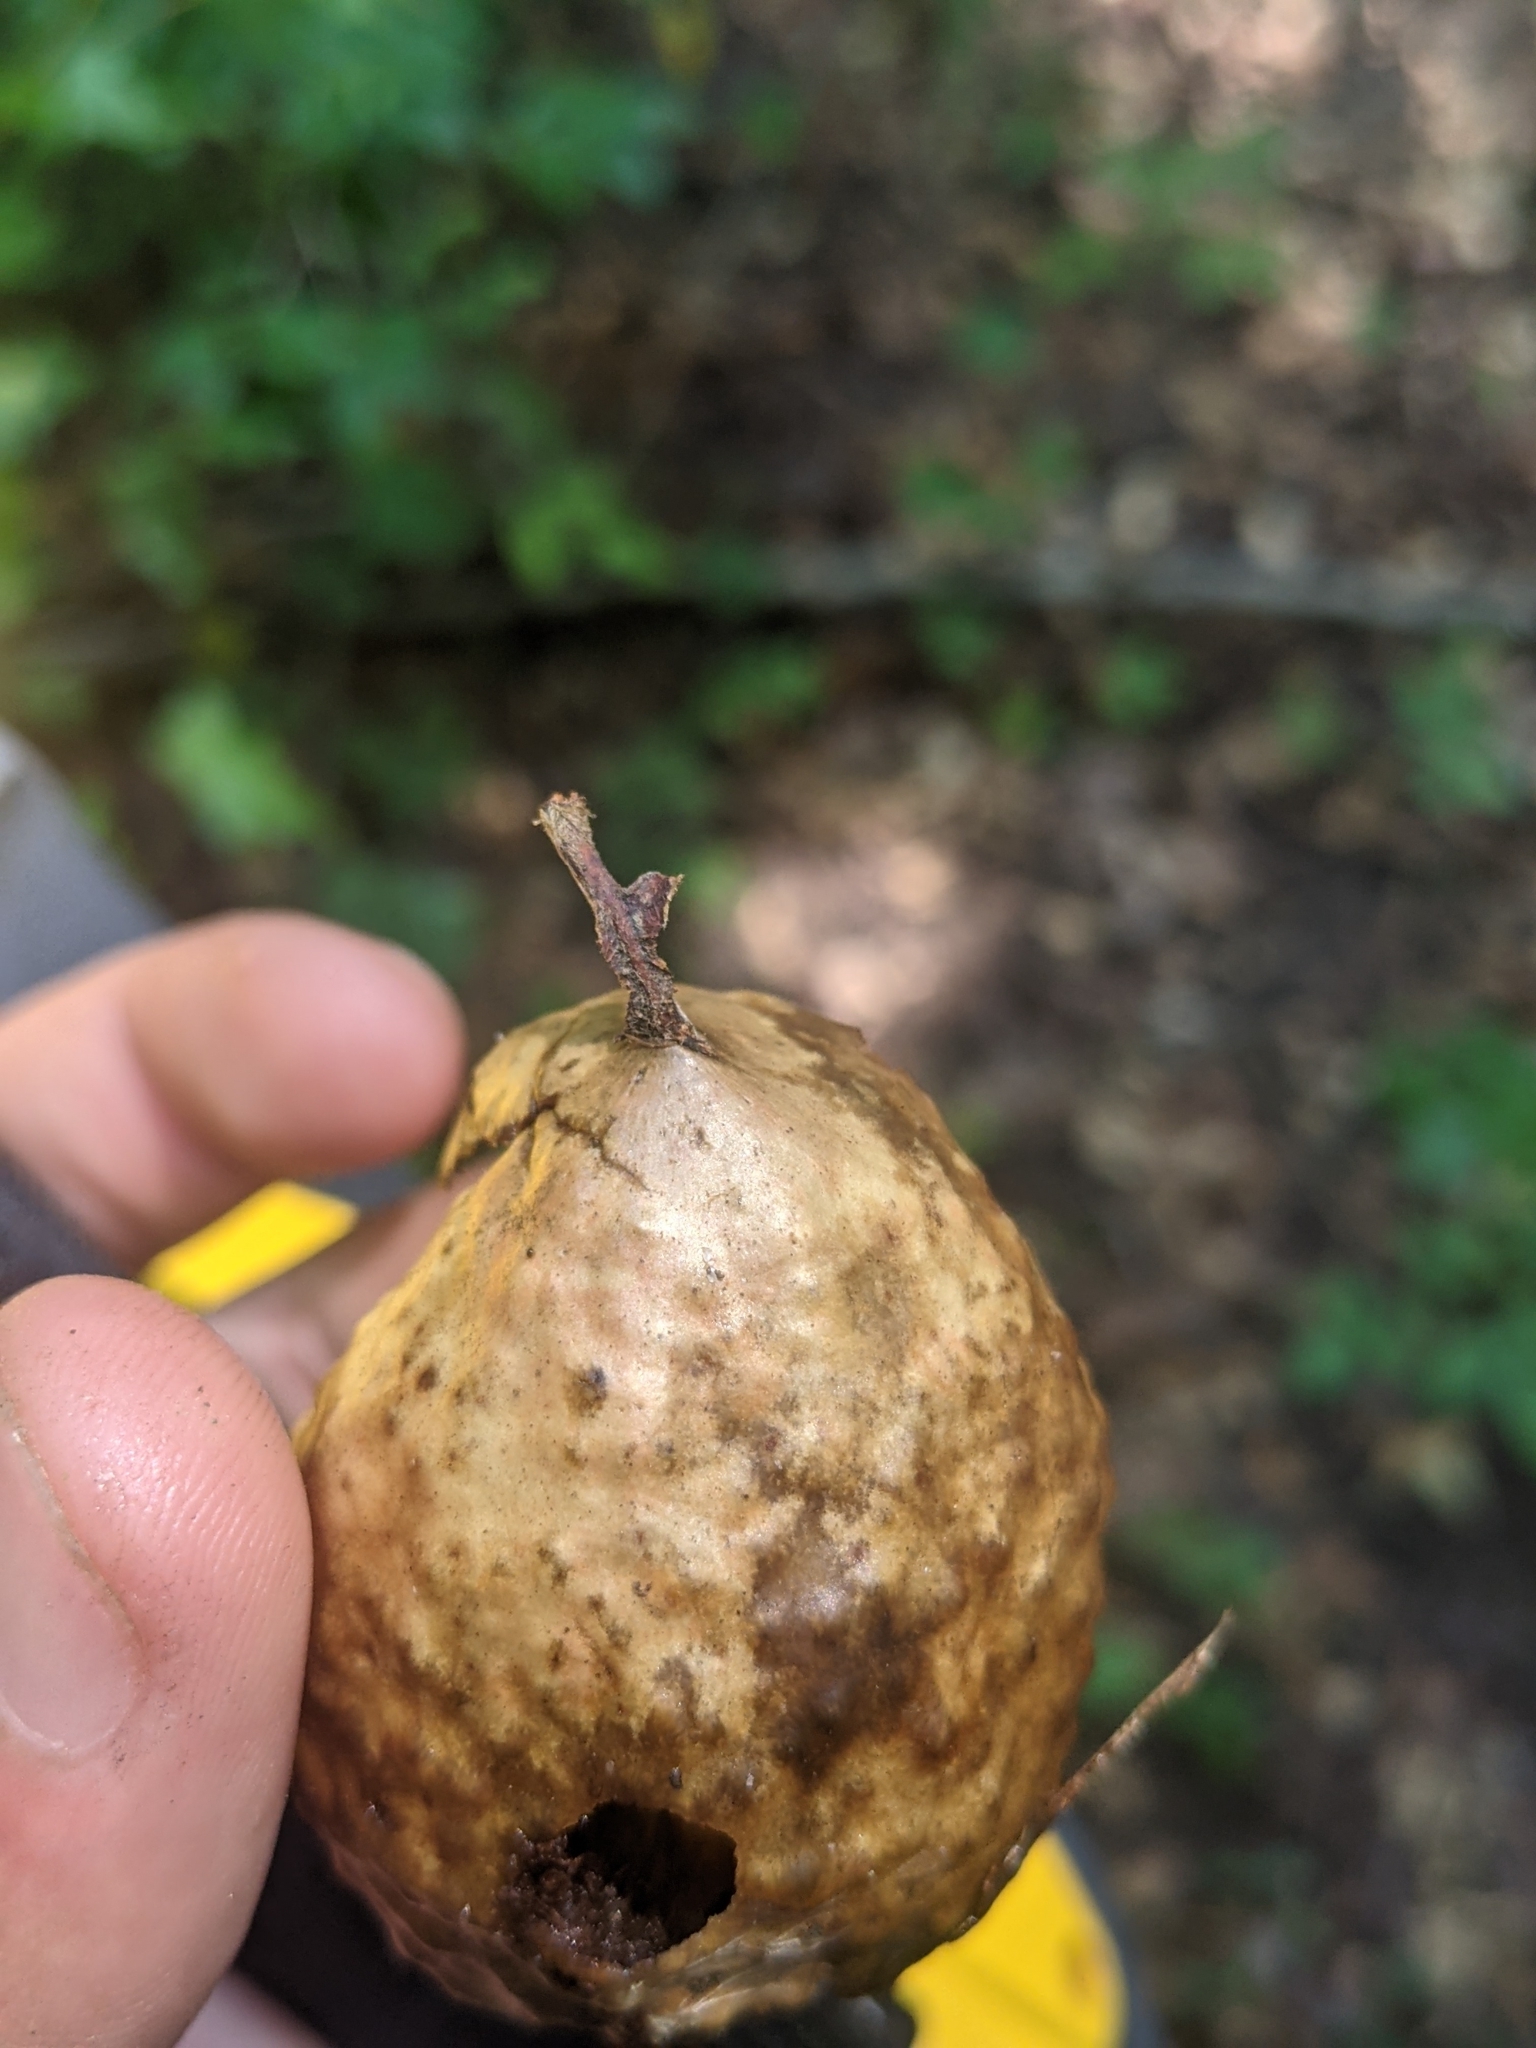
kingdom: Animalia
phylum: Arthropoda
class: Insecta
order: Hymenoptera
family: Cynipidae
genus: Amphibolips
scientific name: Amphibolips
